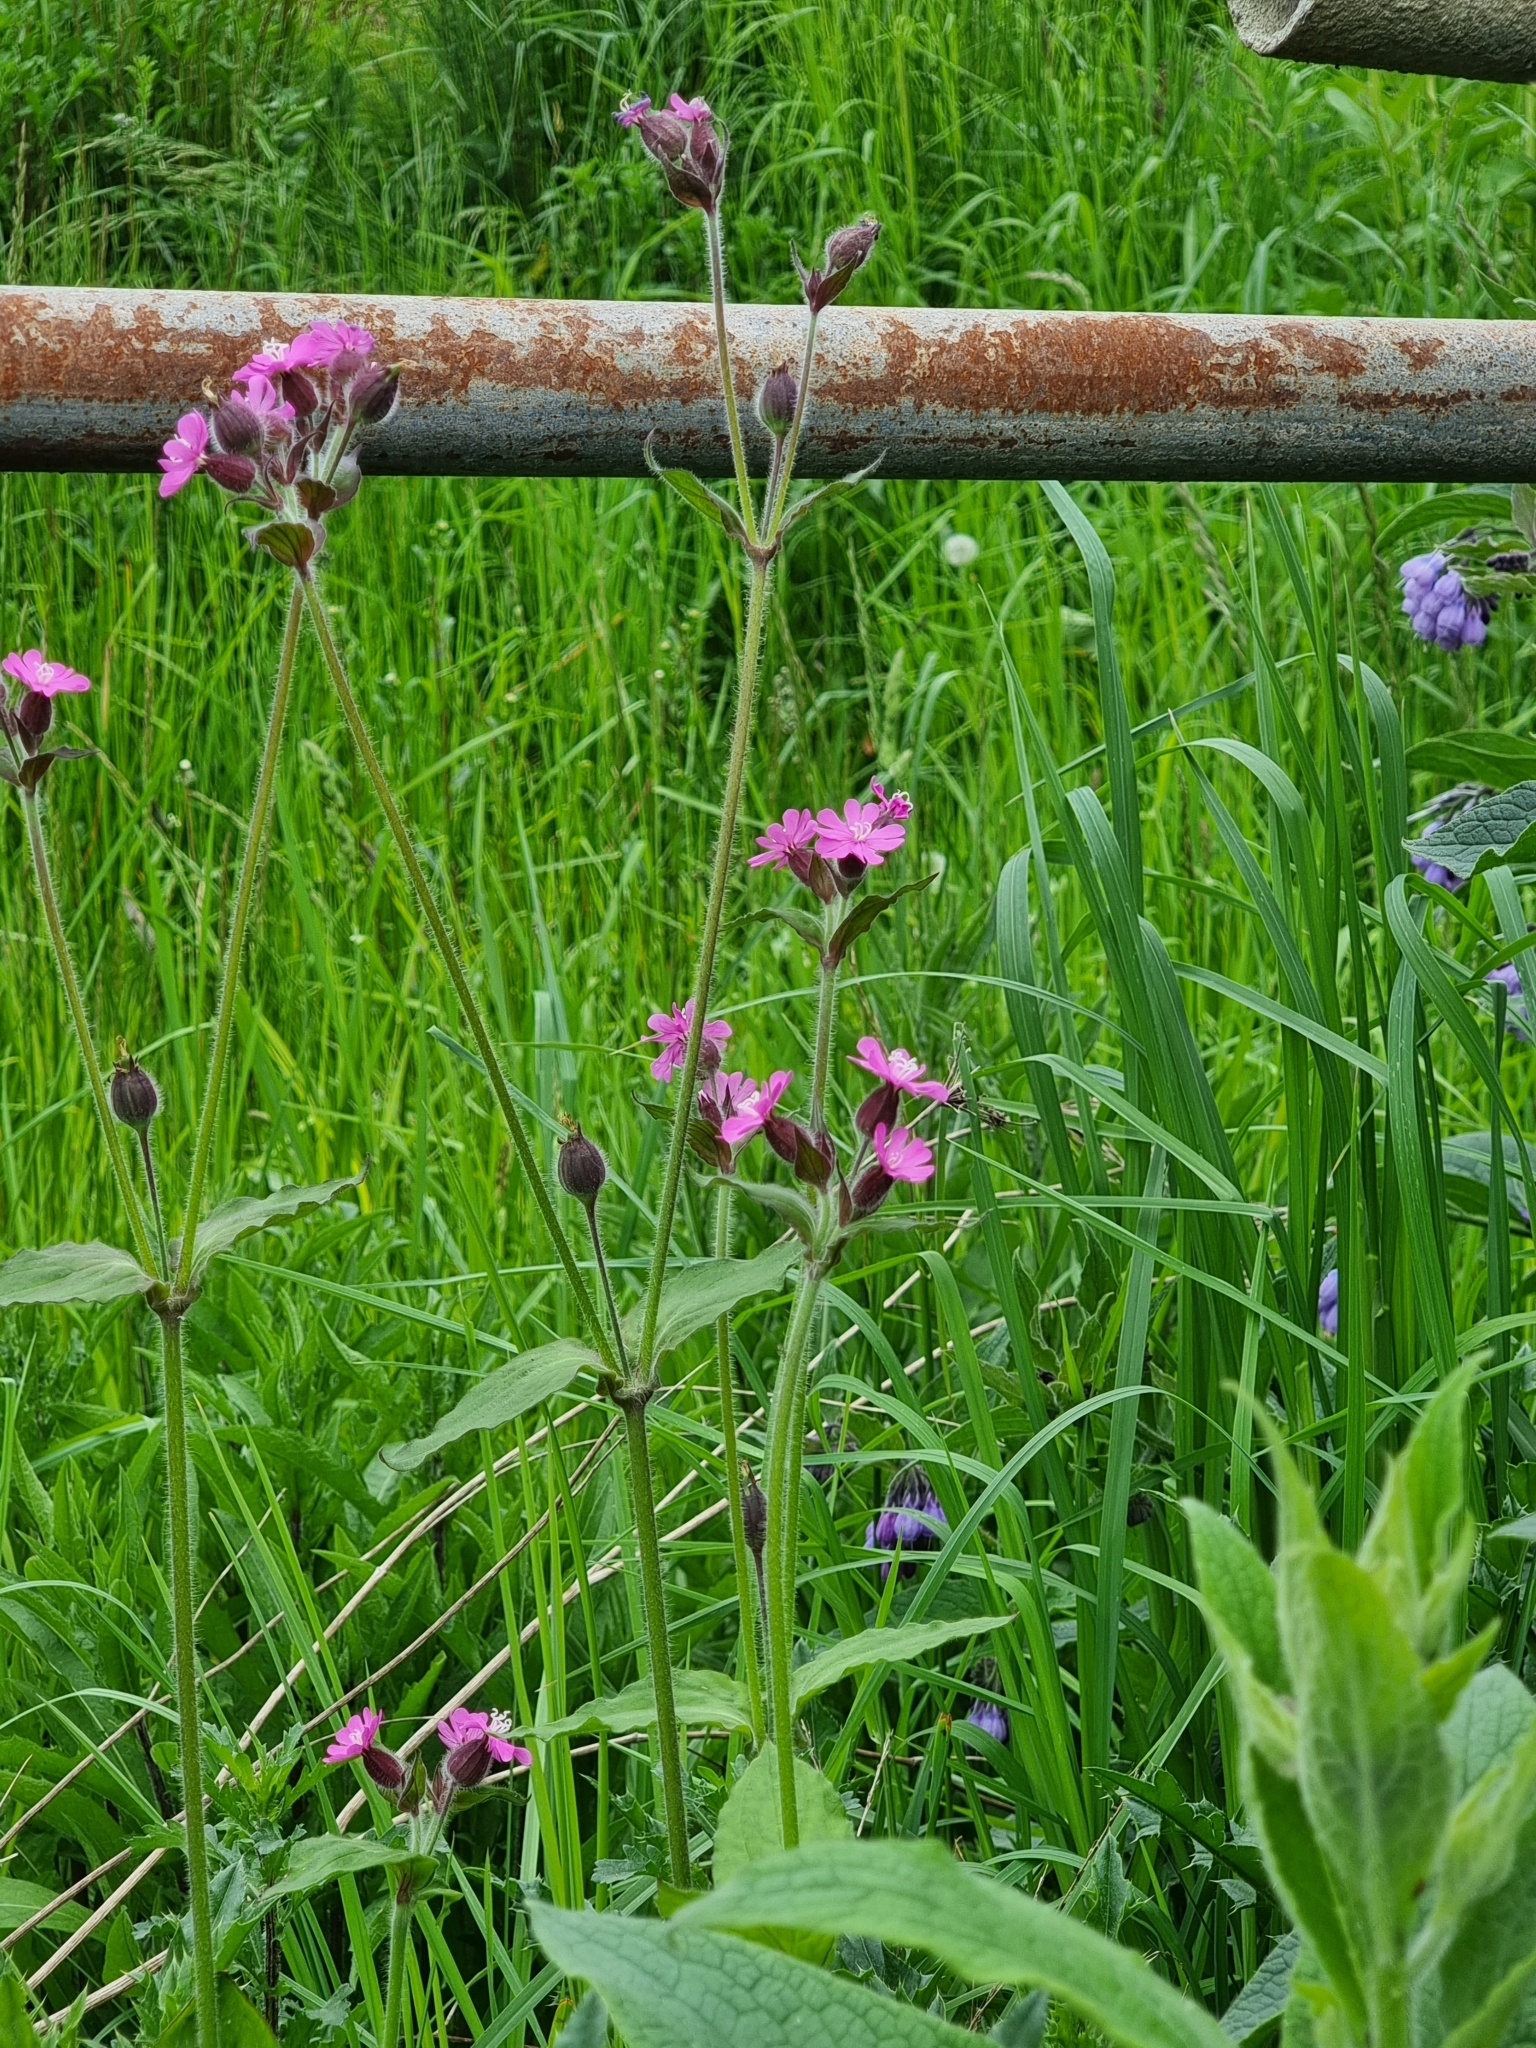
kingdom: Plantae
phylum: Tracheophyta
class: Magnoliopsida
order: Caryophyllales
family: Caryophyllaceae
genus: Silene
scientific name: Silene dioica
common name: Red campion
